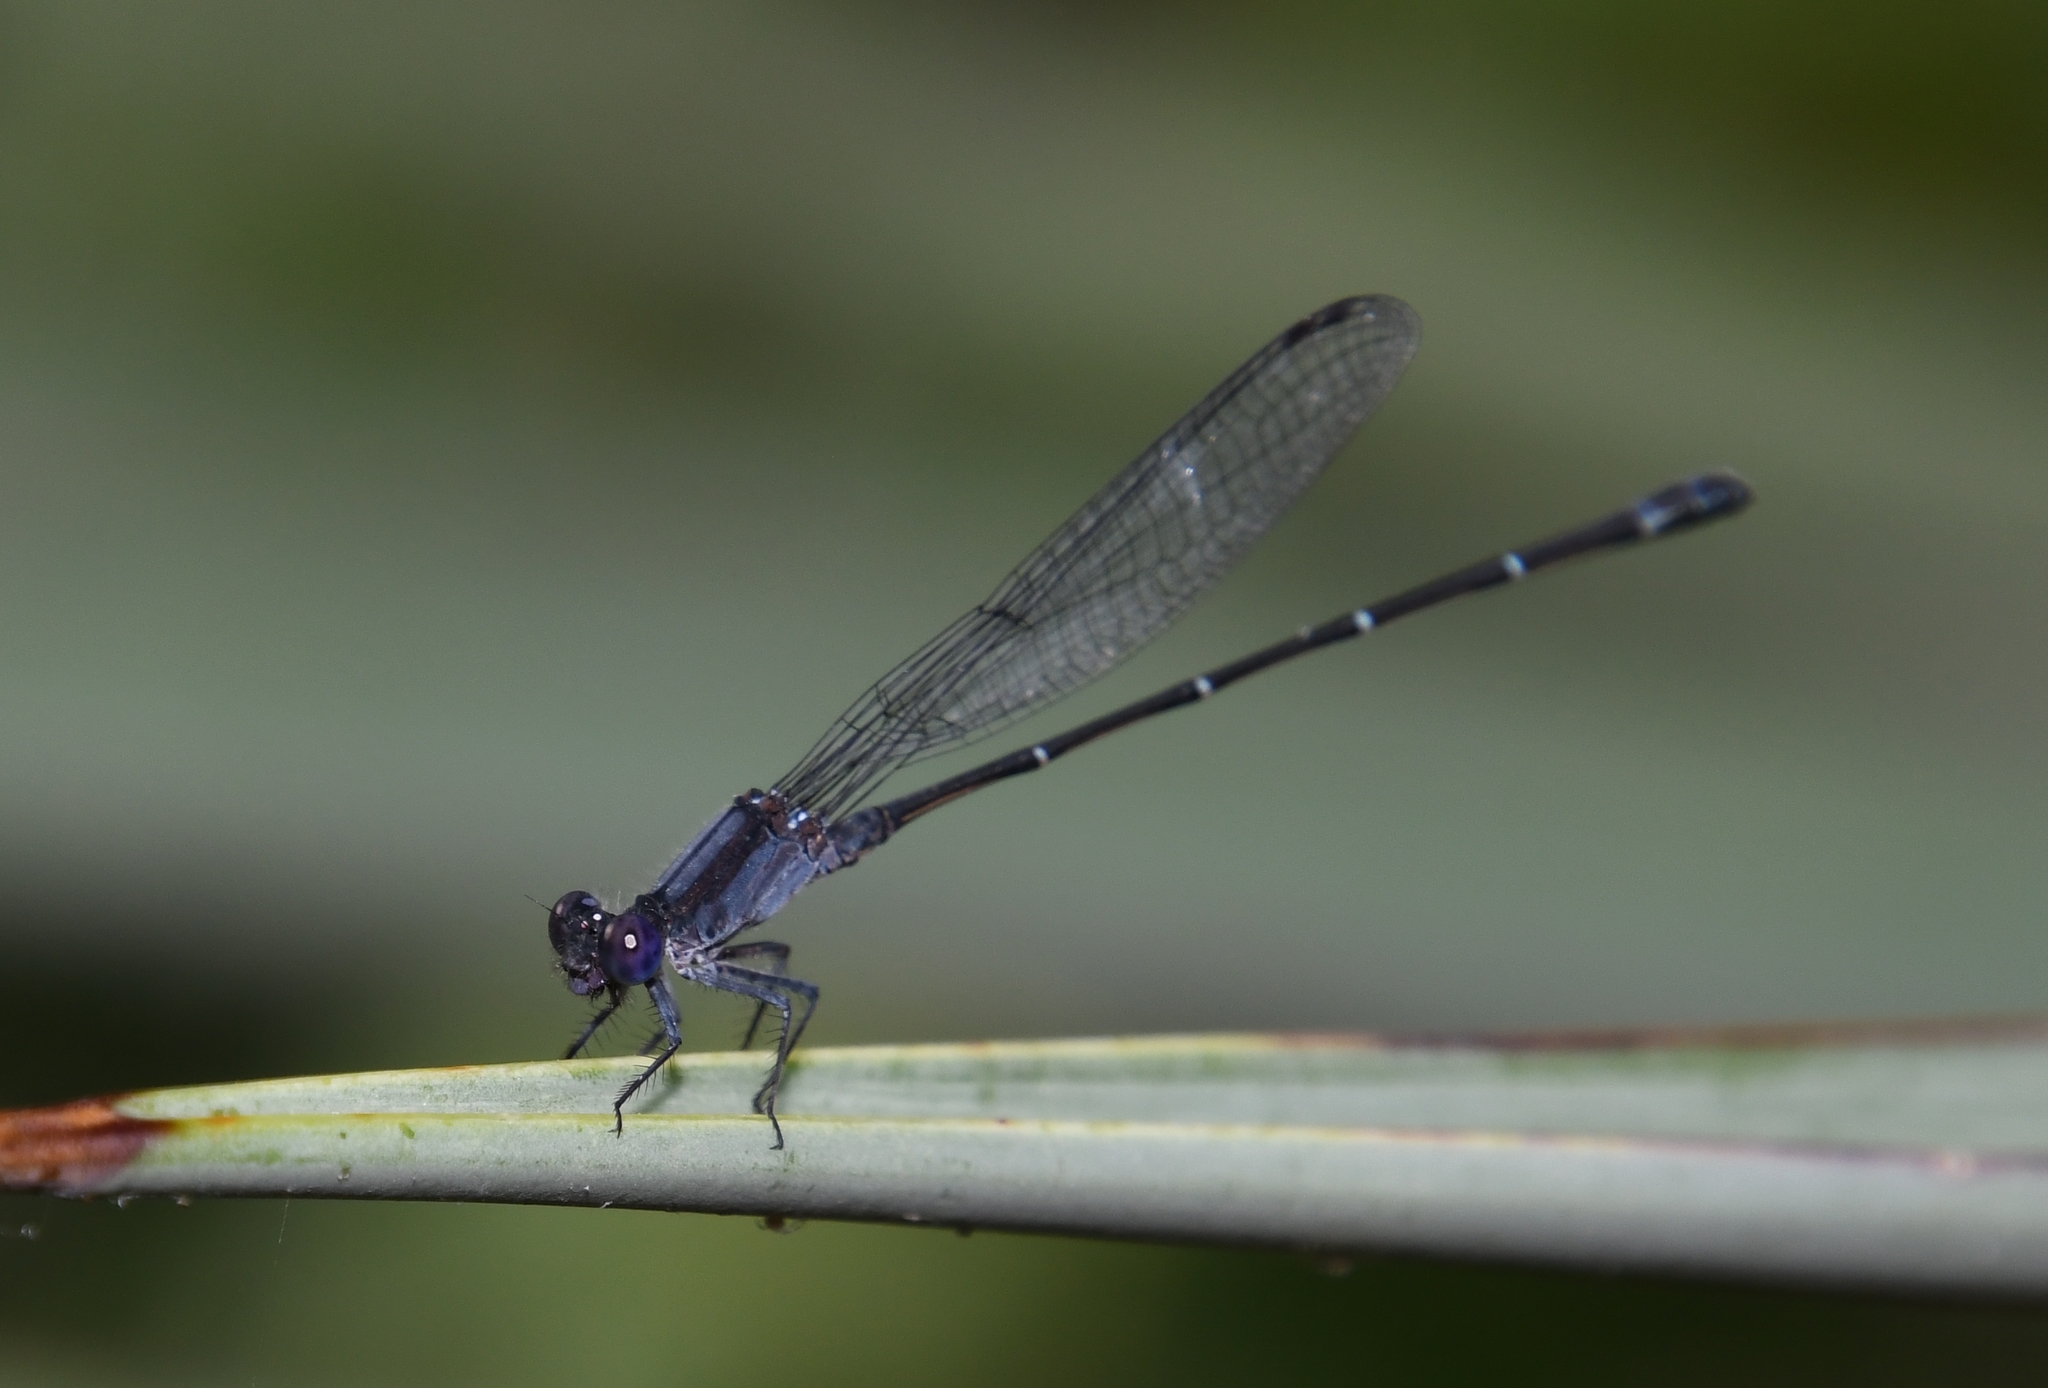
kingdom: Animalia
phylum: Arthropoda
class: Insecta
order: Odonata
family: Coenagrionidae
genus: Argia
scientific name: Argia translata
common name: Dusky dancer
